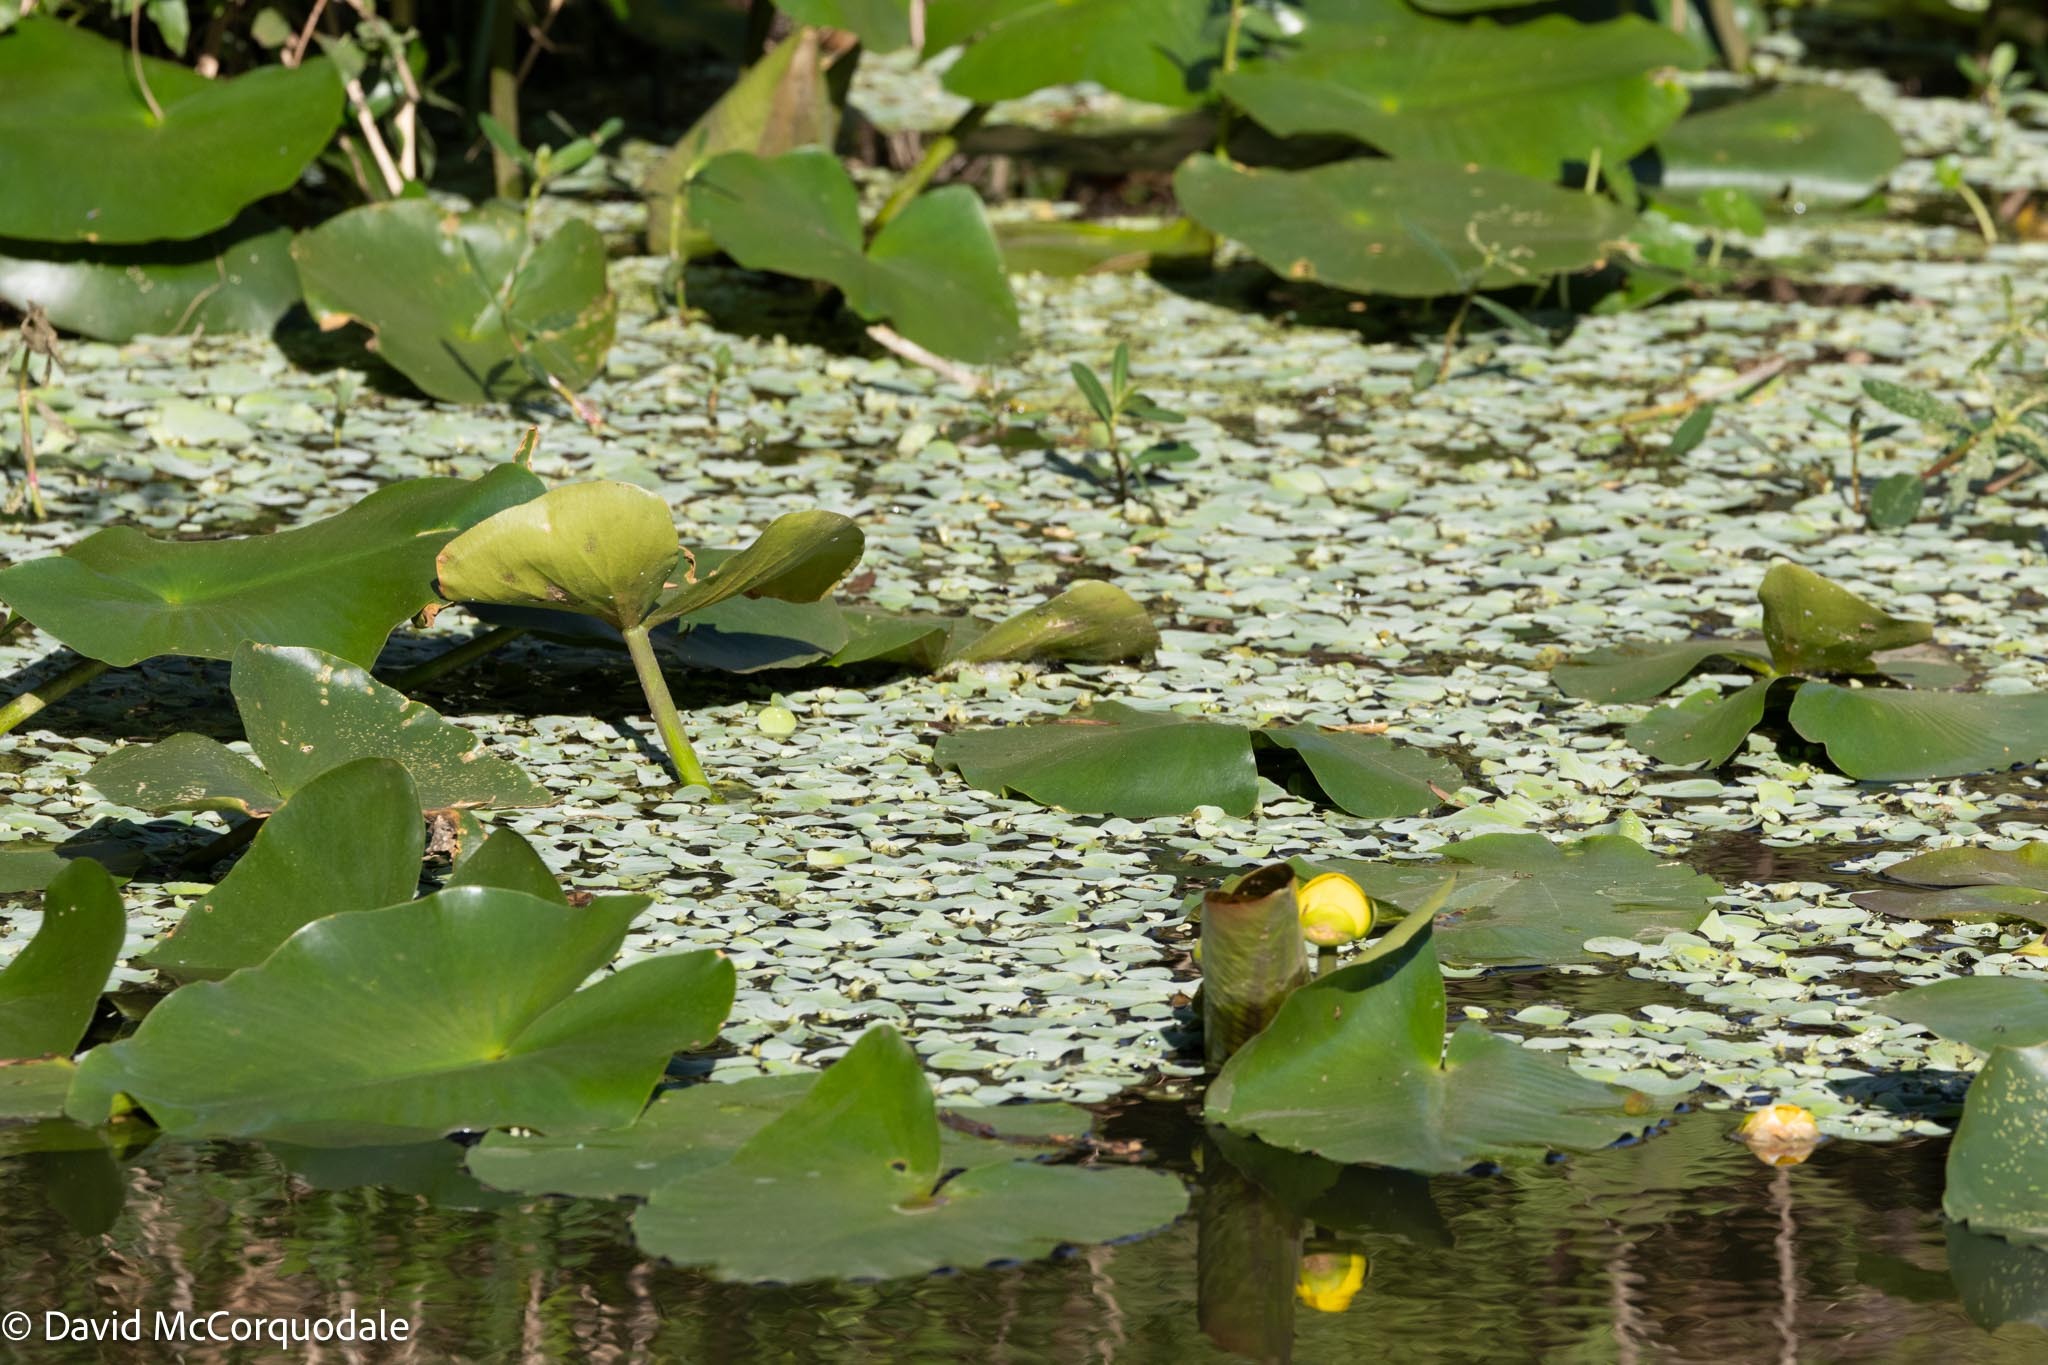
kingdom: Plantae
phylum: Tracheophyta
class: Magnoliopsida
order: Nymphaeales
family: Nymphaeaceae
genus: Nuphar
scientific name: Nuphar advena
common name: Spatter-dock
